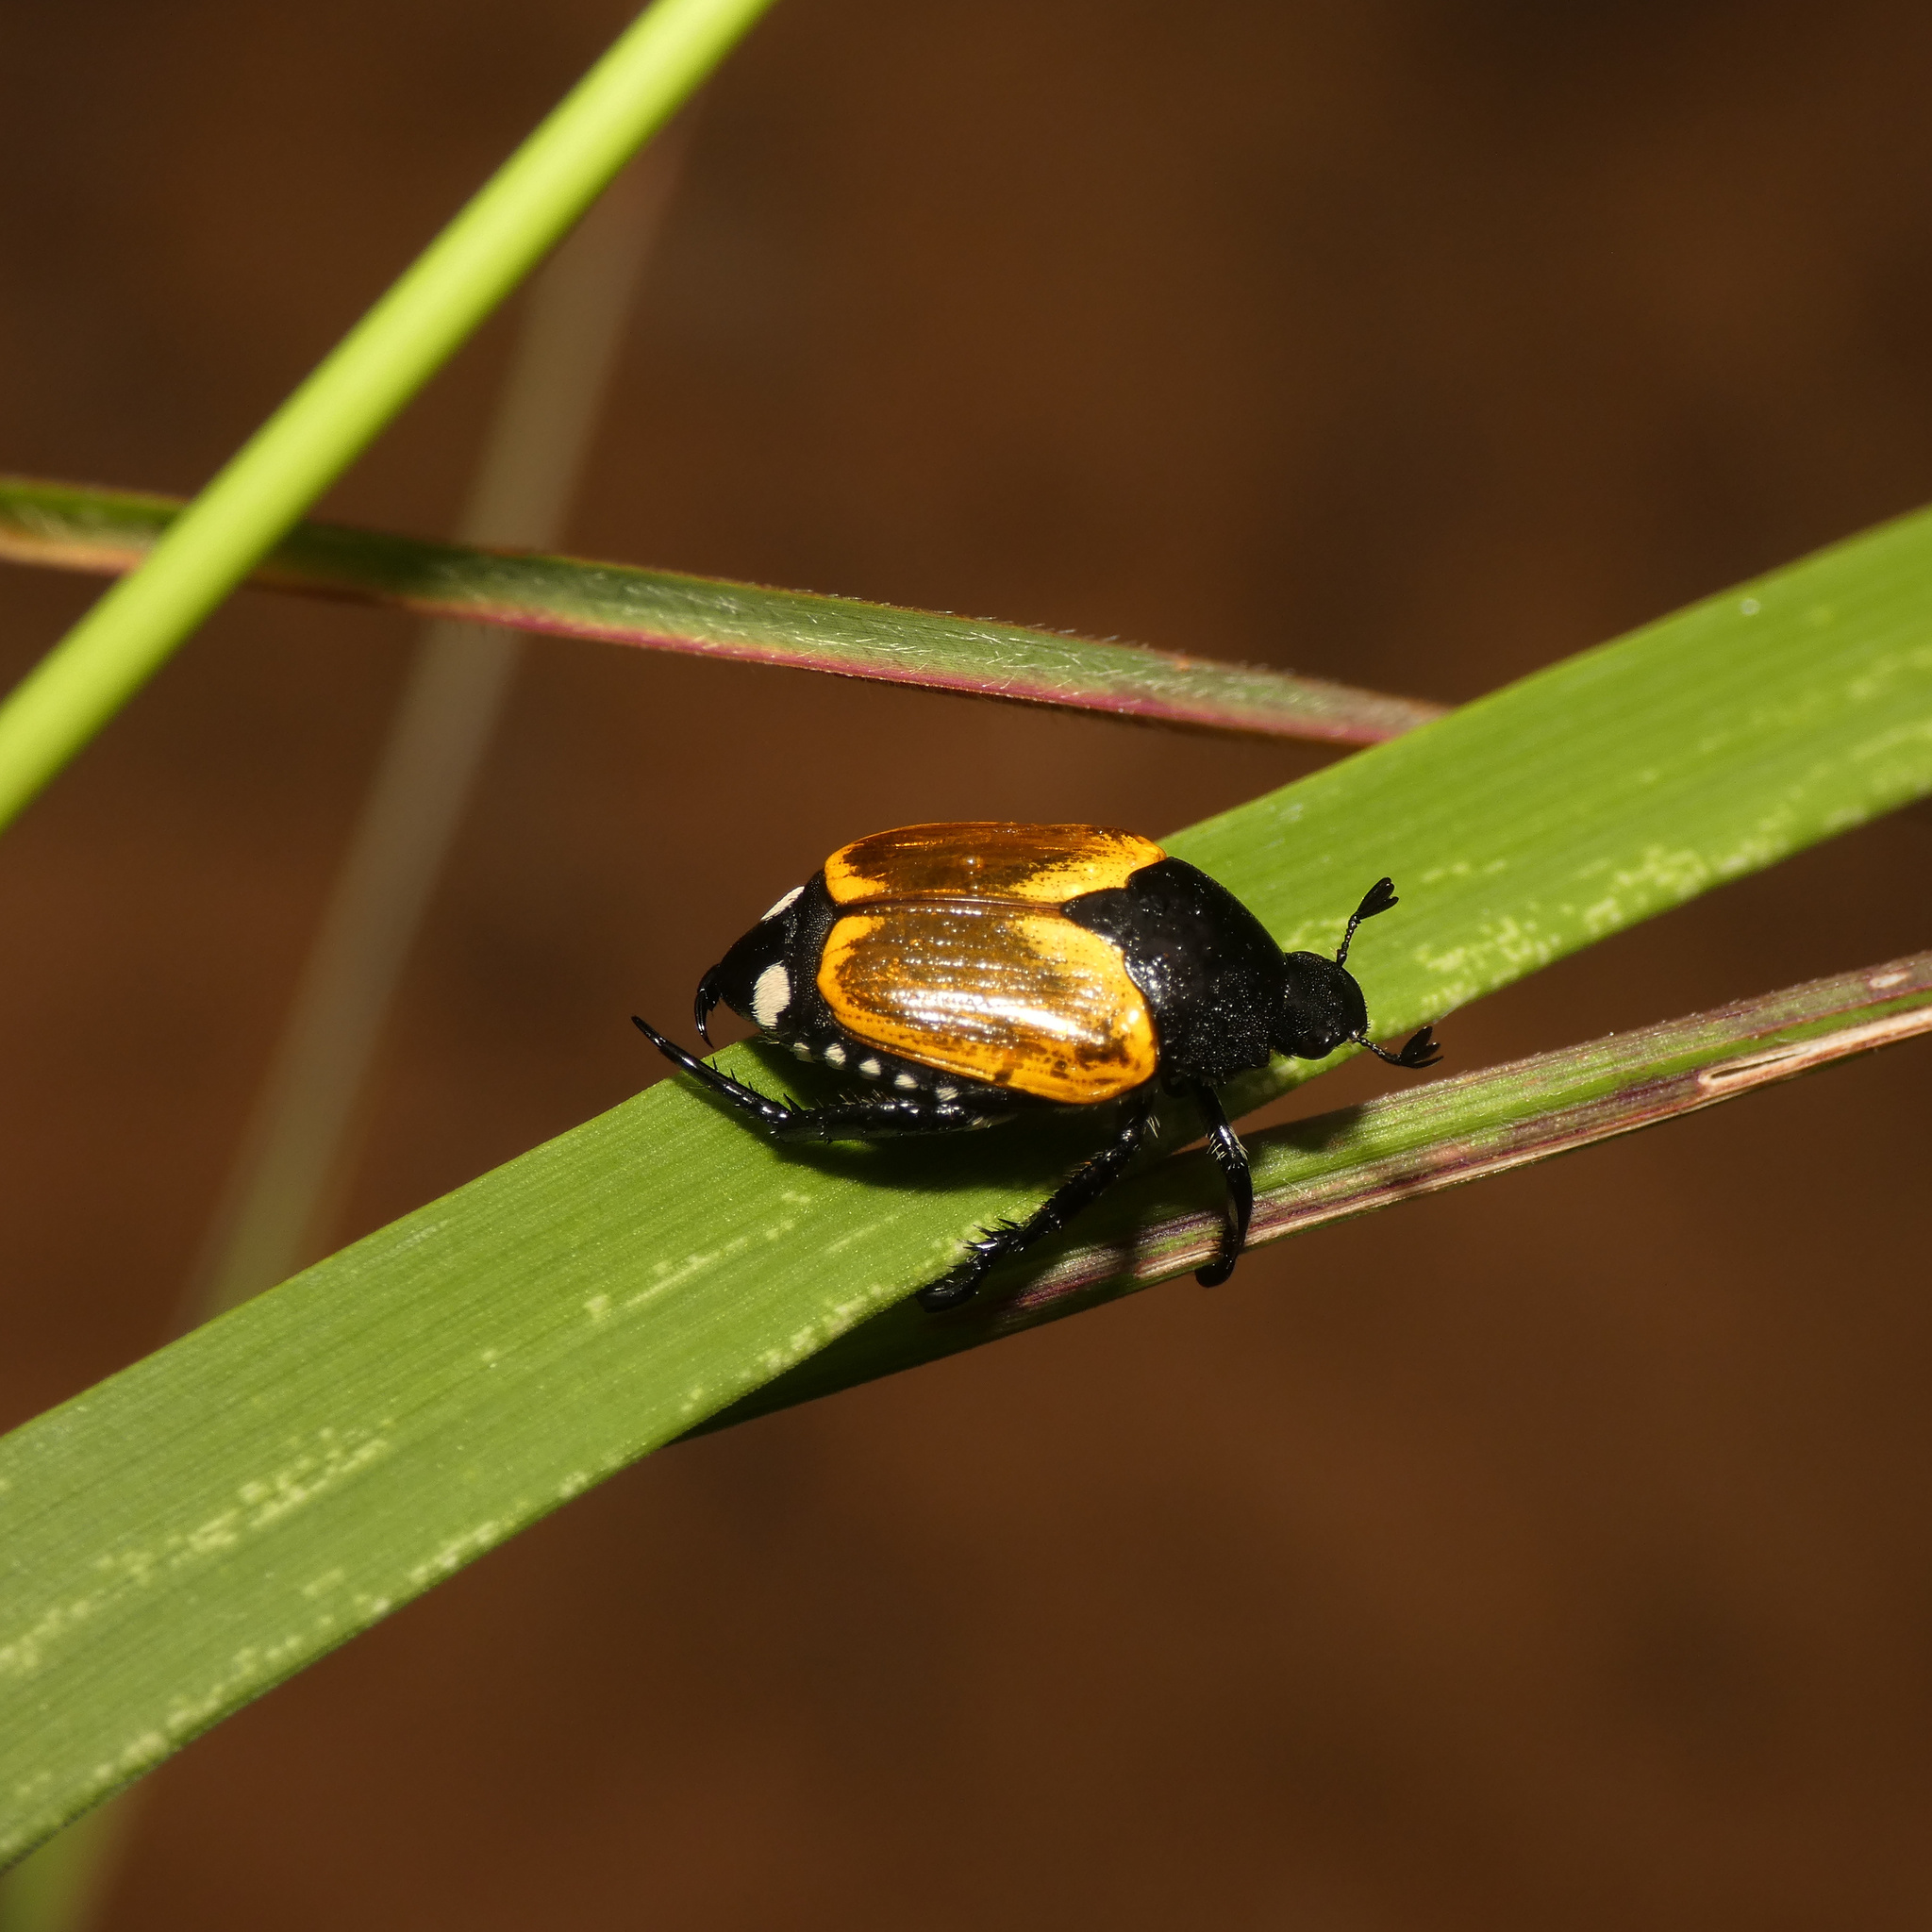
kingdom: Animalia
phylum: Arthropoda
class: Insecta
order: Coleoptera
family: Scarabaeidae
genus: Popillia
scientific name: Popillia bipunctata
